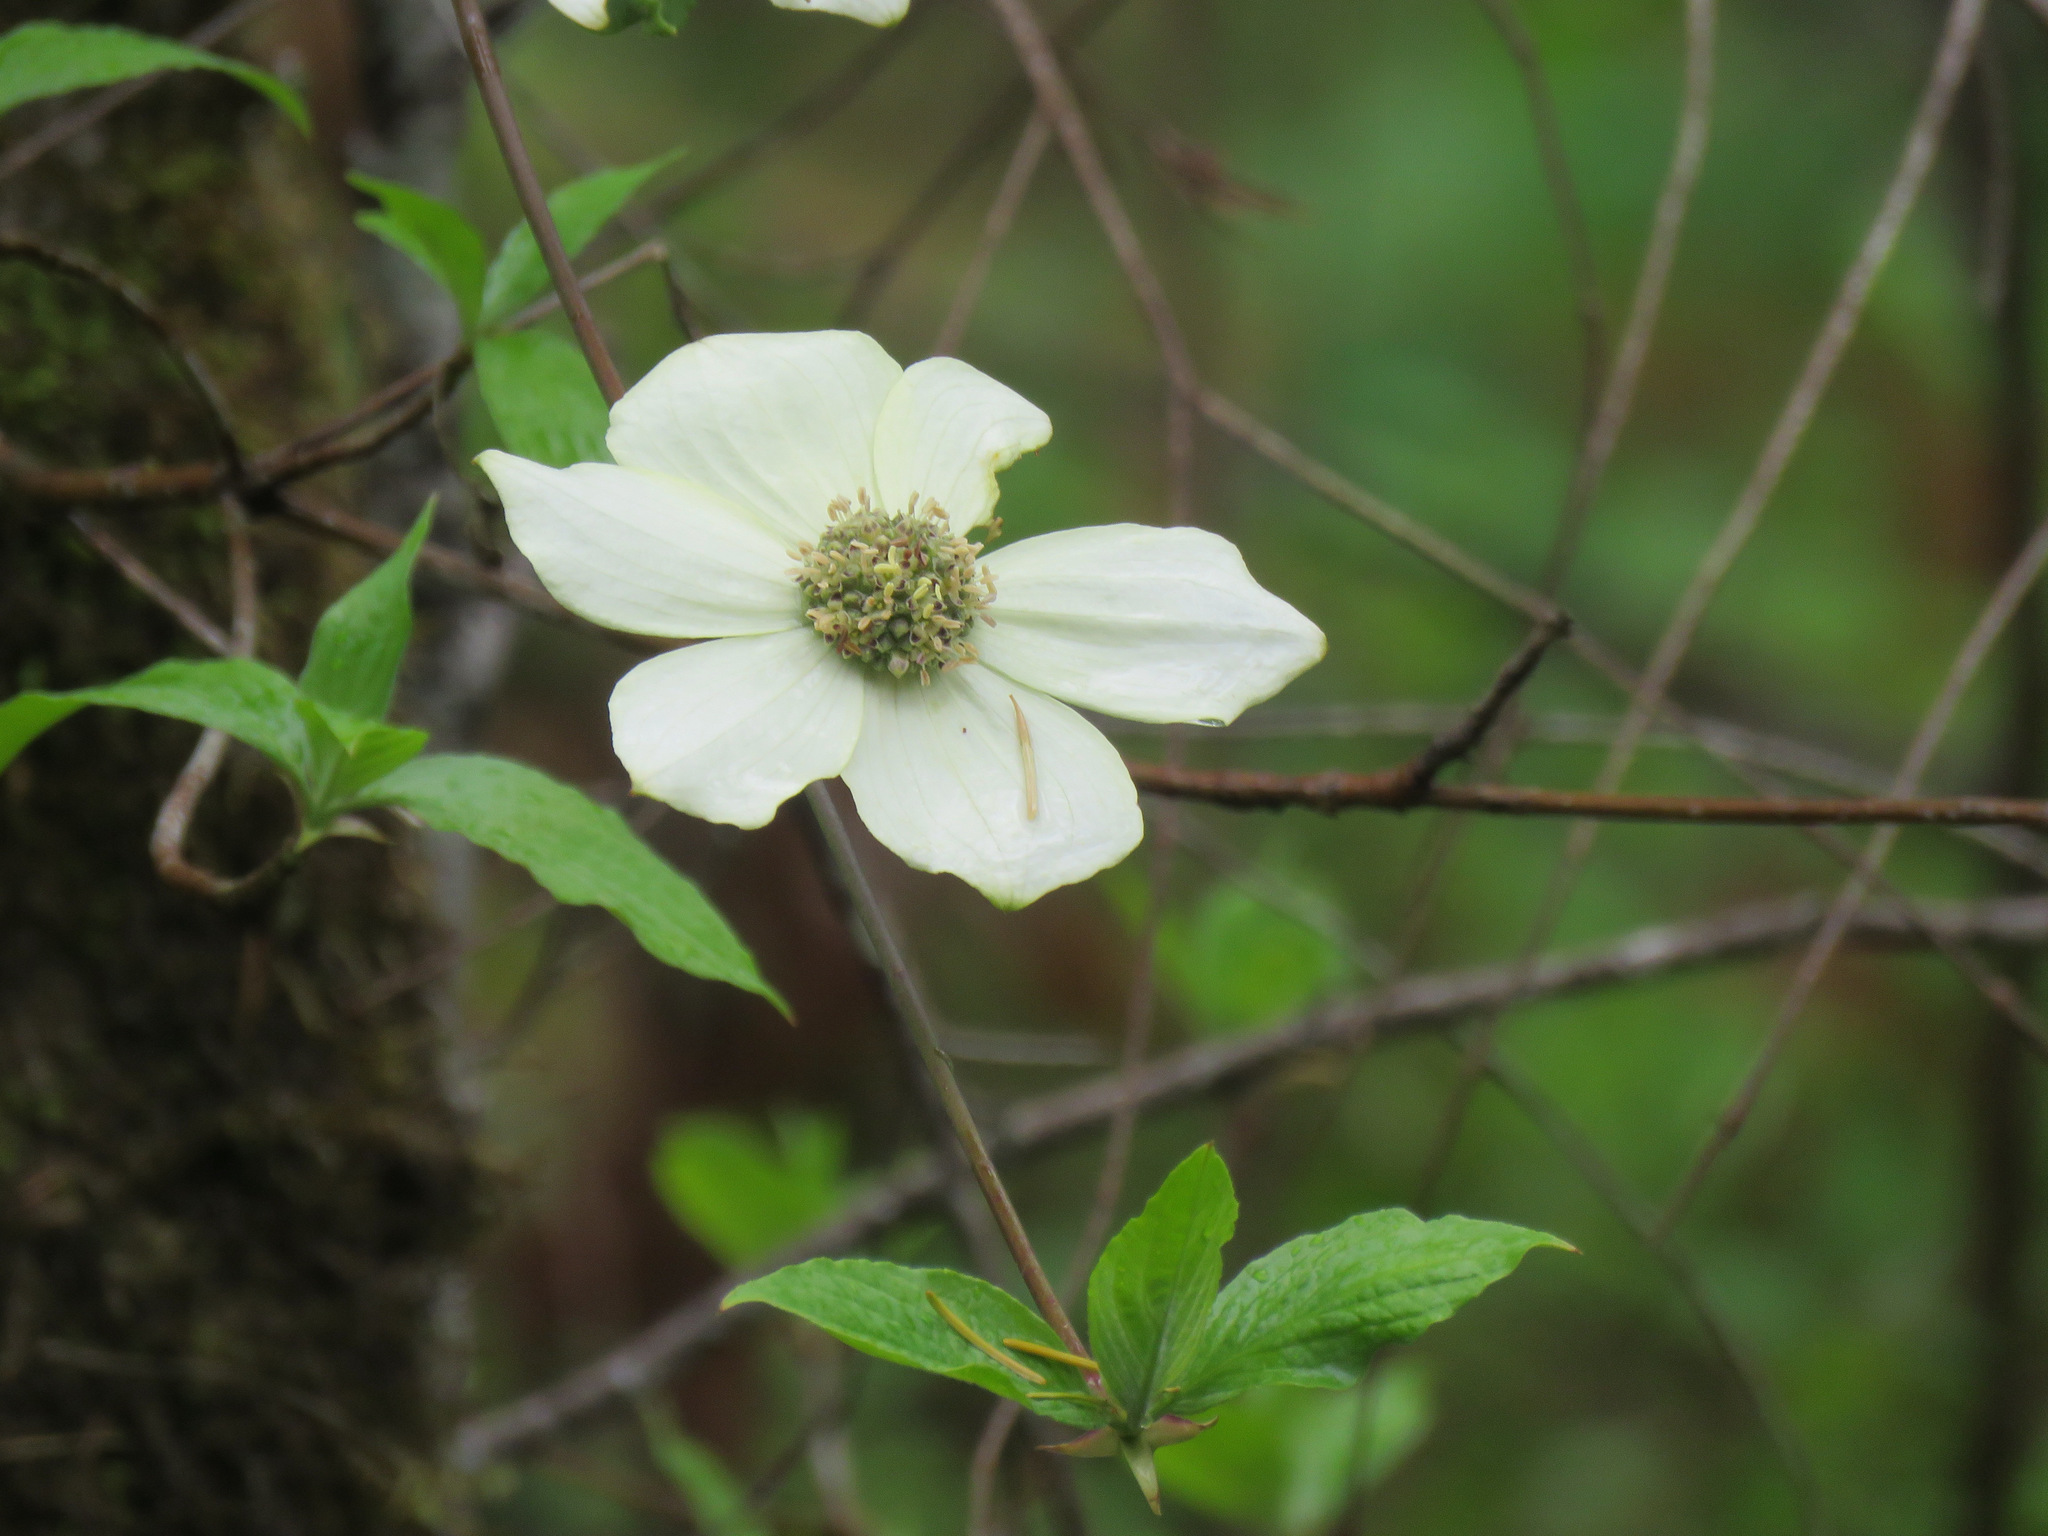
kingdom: Plantae
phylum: Tracheophyta
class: Magnoliopsida
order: Cornales
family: Cornaceae
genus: Cornus
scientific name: Cornus nuttallii
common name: Pacific dogwood
